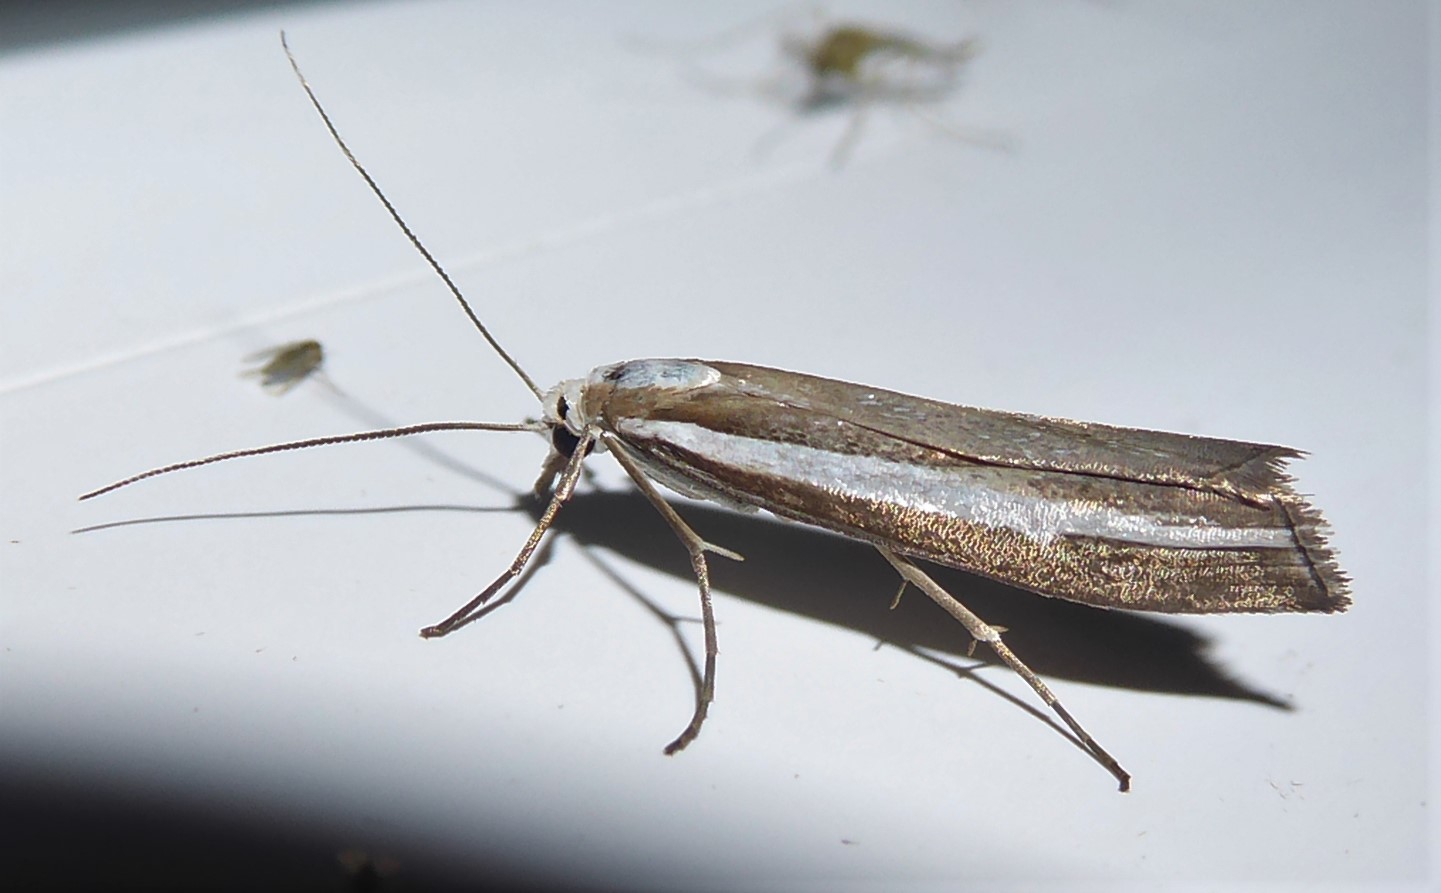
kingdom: Animalia
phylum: Arthropoda
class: Insecta
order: Lepidoptera
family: Crambidae
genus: Orocrambus
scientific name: Orocrambus vittellus
